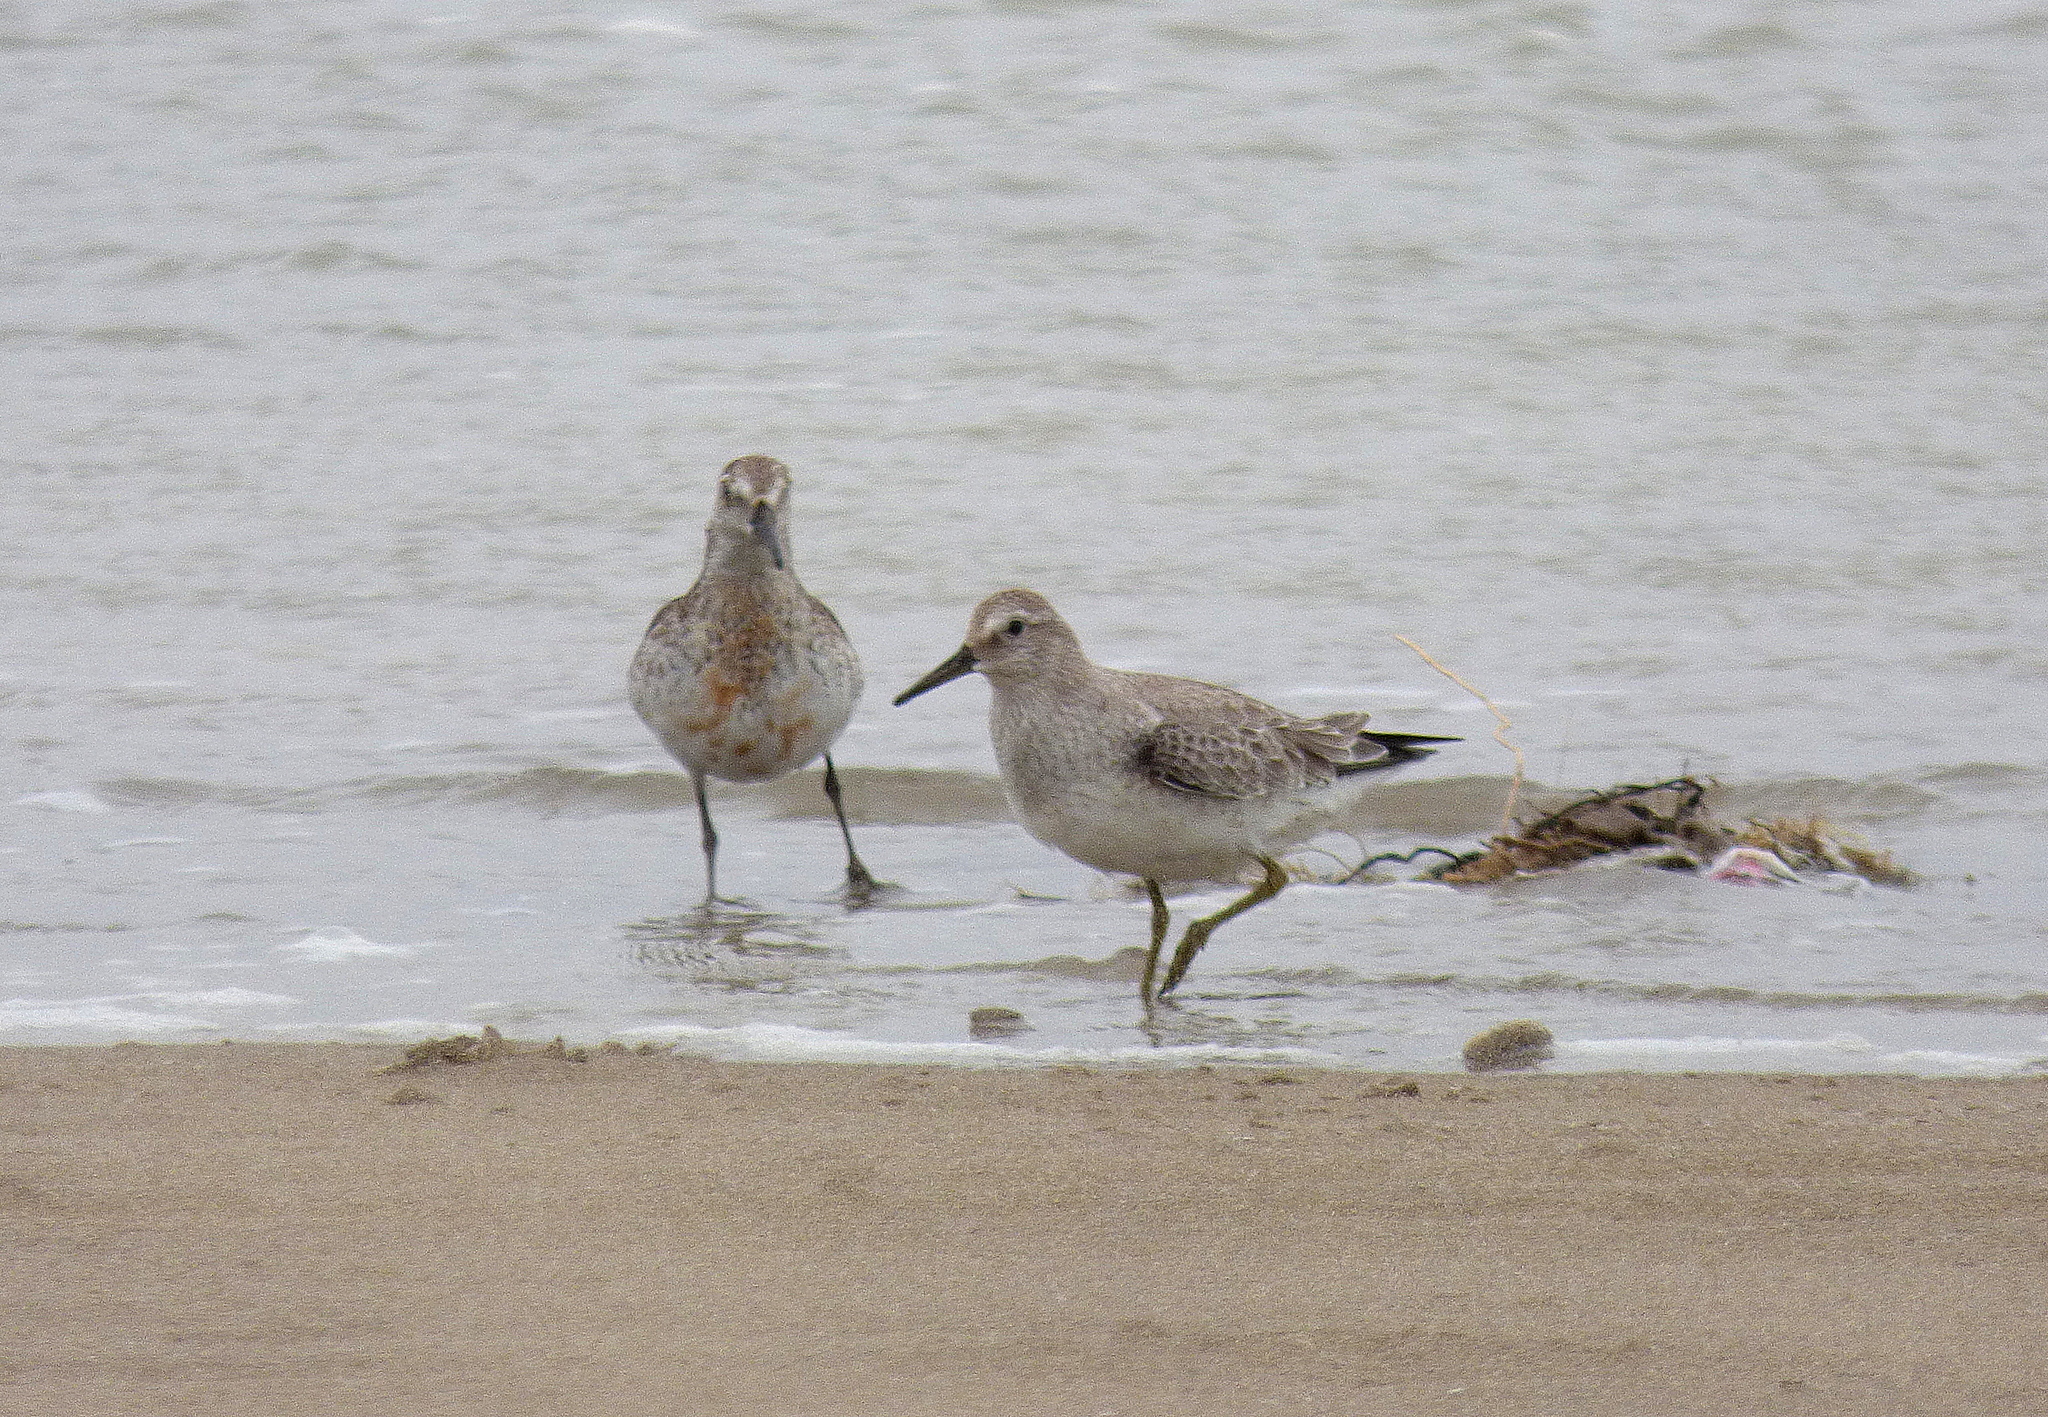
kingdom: Animalia
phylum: Chordata
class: Aves
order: Charadriiformes
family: Scolopacidae
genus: Calidris
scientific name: Calidris canutus
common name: Red knot
